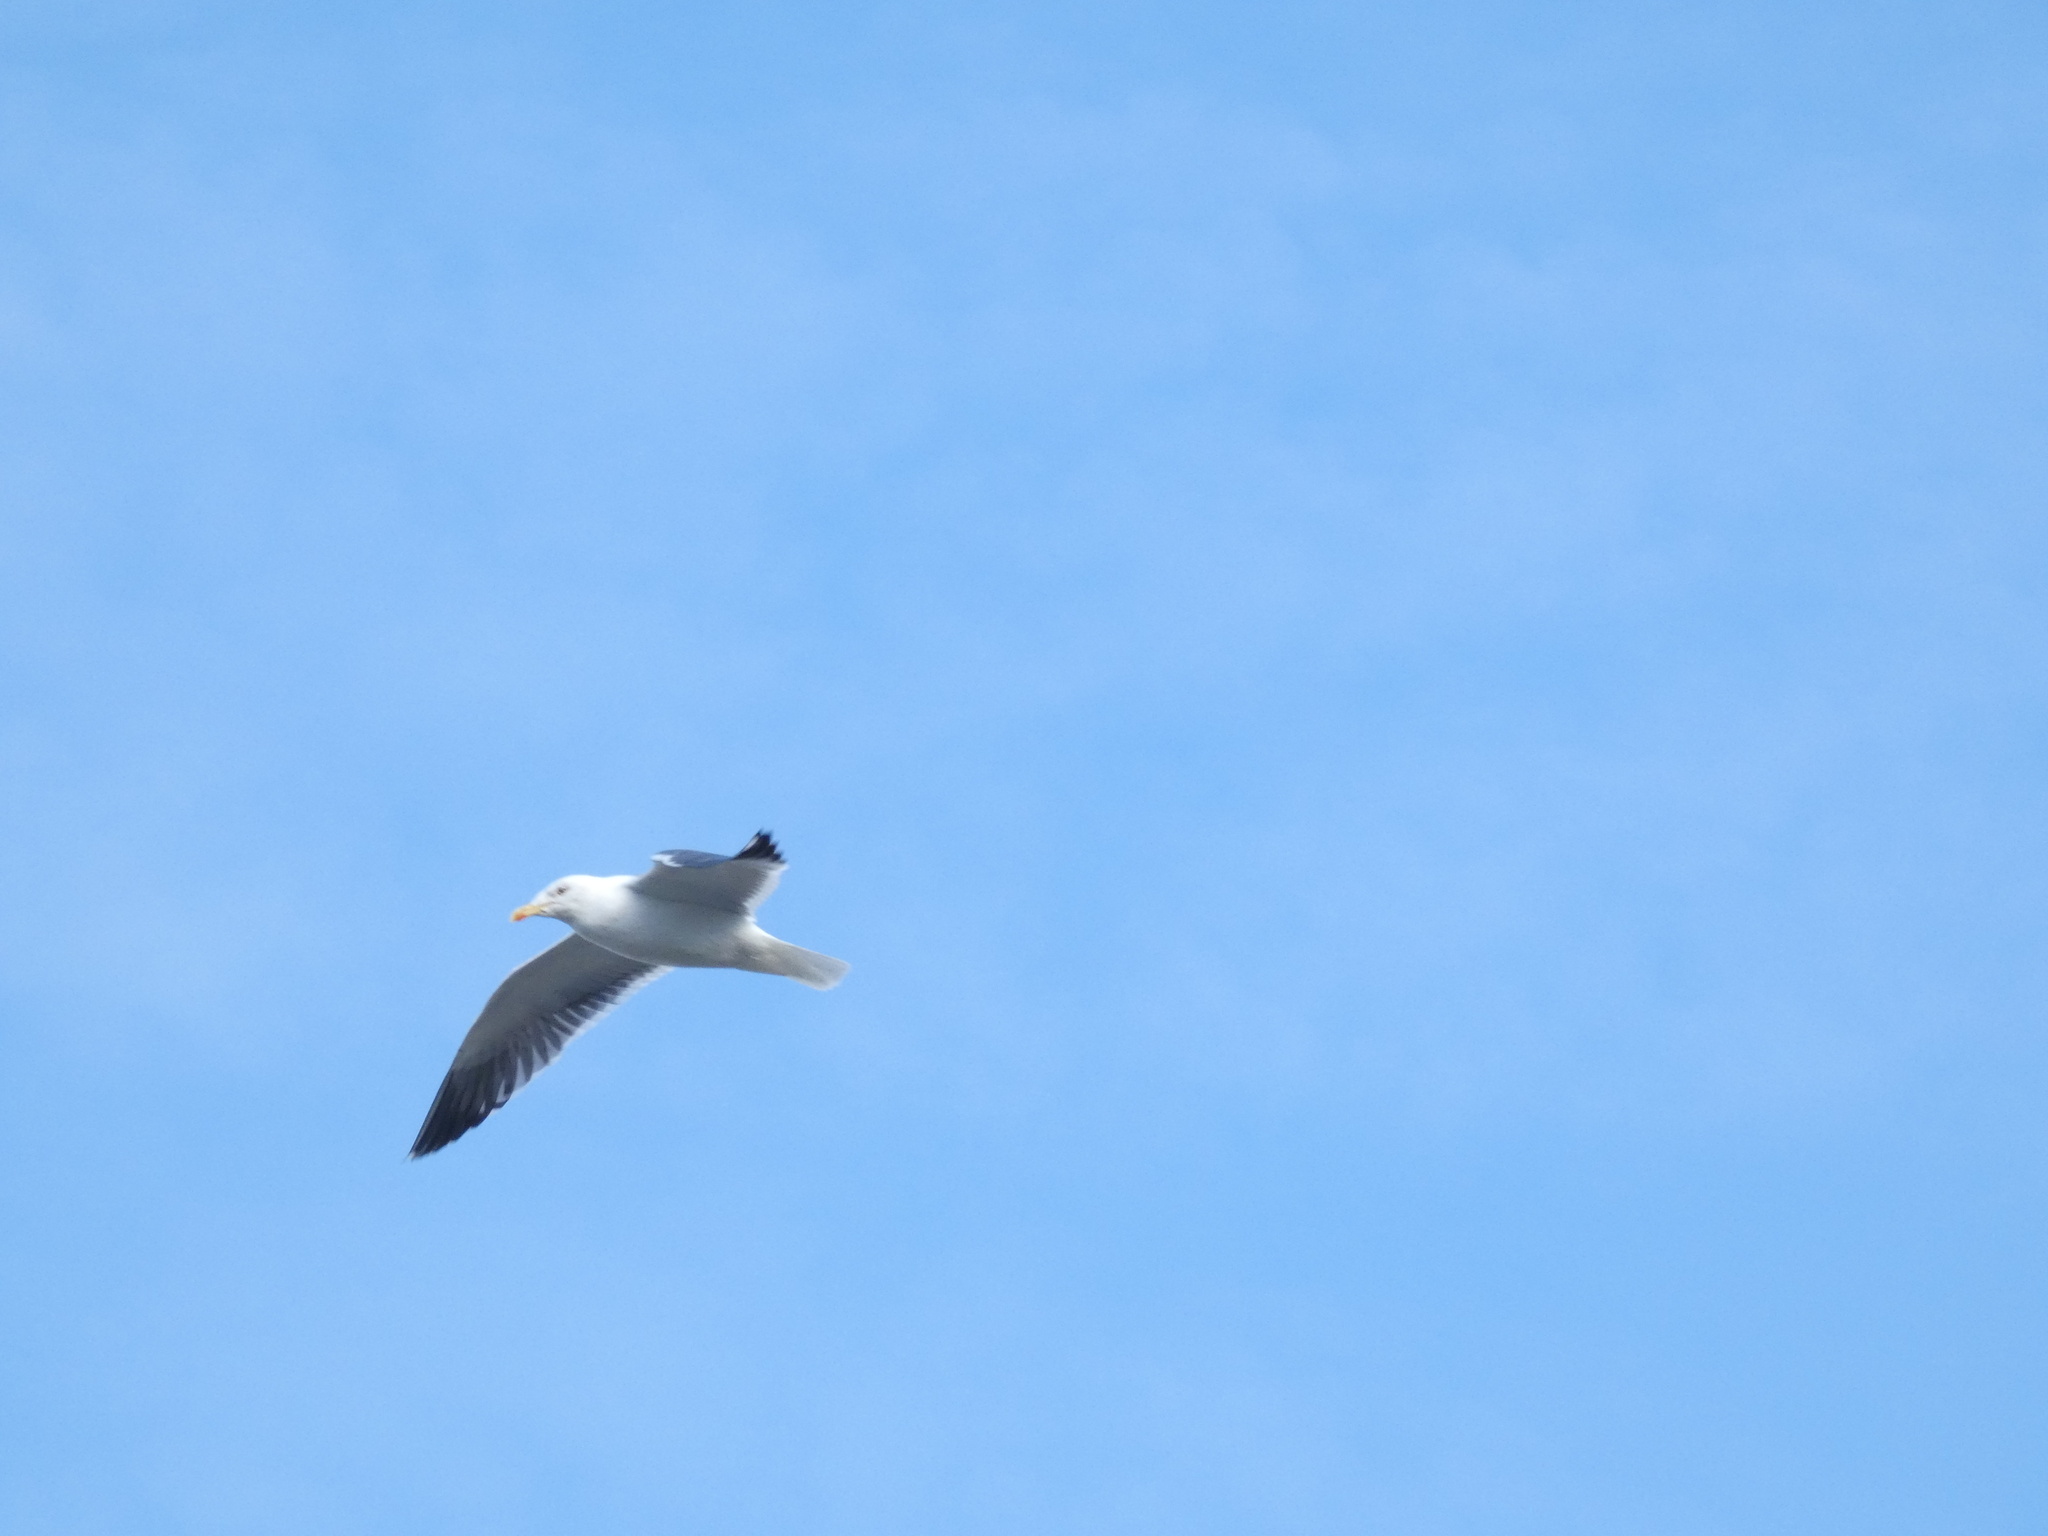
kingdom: Animalia
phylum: Chordata
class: Aves
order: Charadriiformes
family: Laridae
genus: Larus
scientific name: Larus fuscus
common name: Lesser black-backed gull
